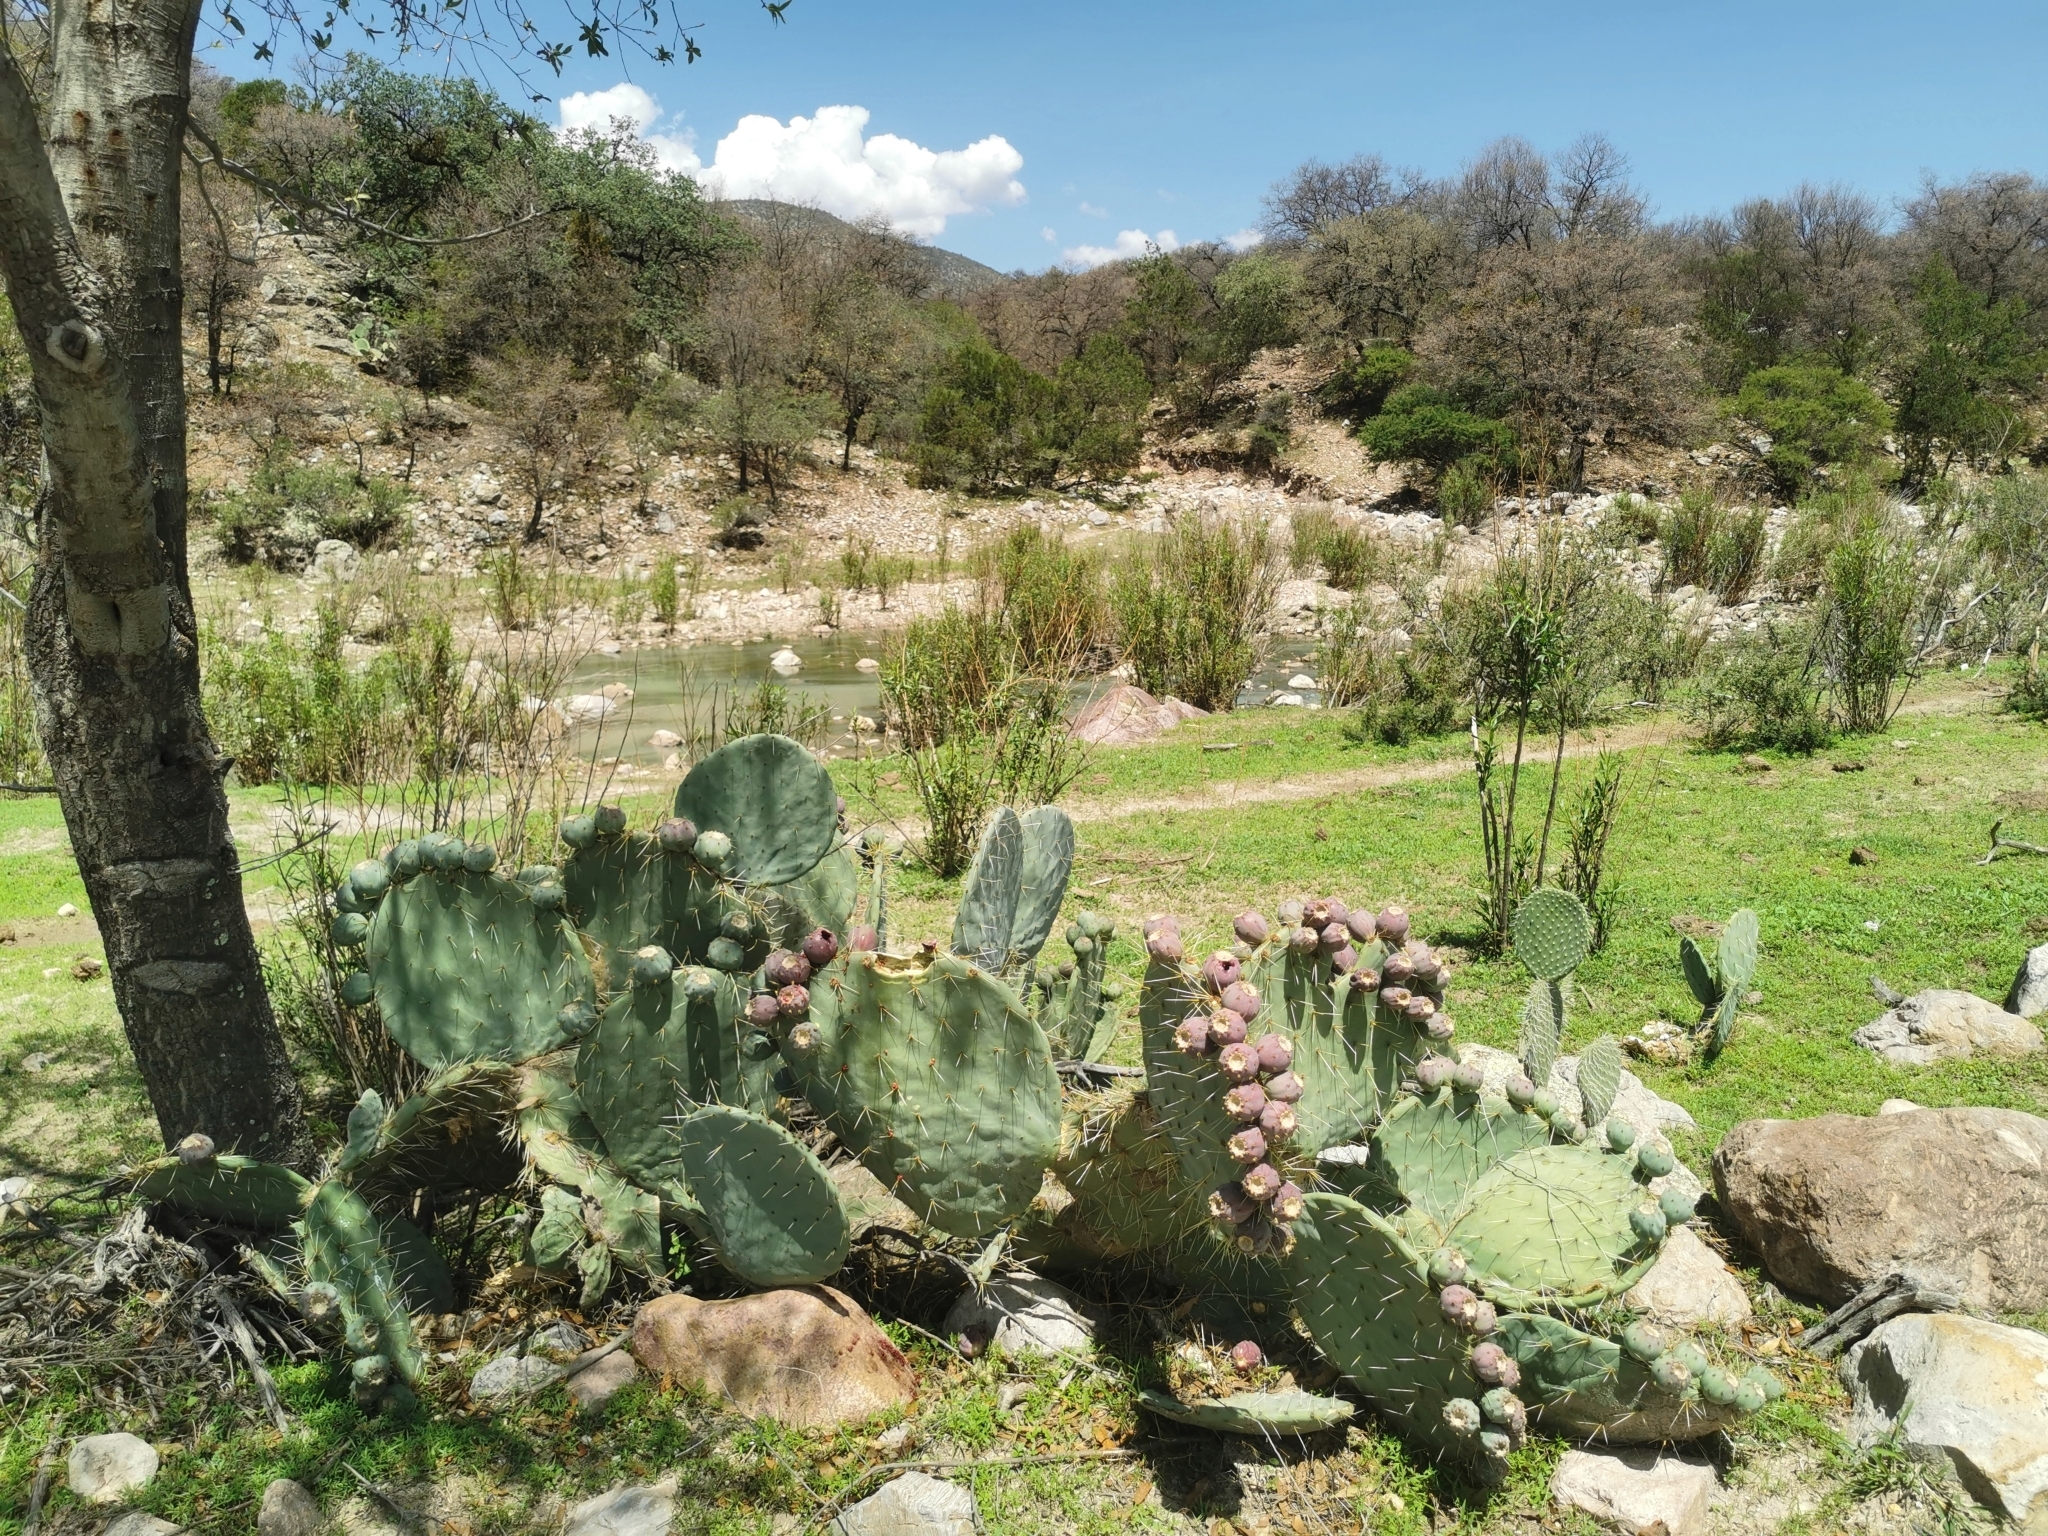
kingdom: Plantae
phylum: Tracheophyta
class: Magnoliopsida
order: Caryophyllales
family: Cactaceae
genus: Opuntia
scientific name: Opuntia robusta
